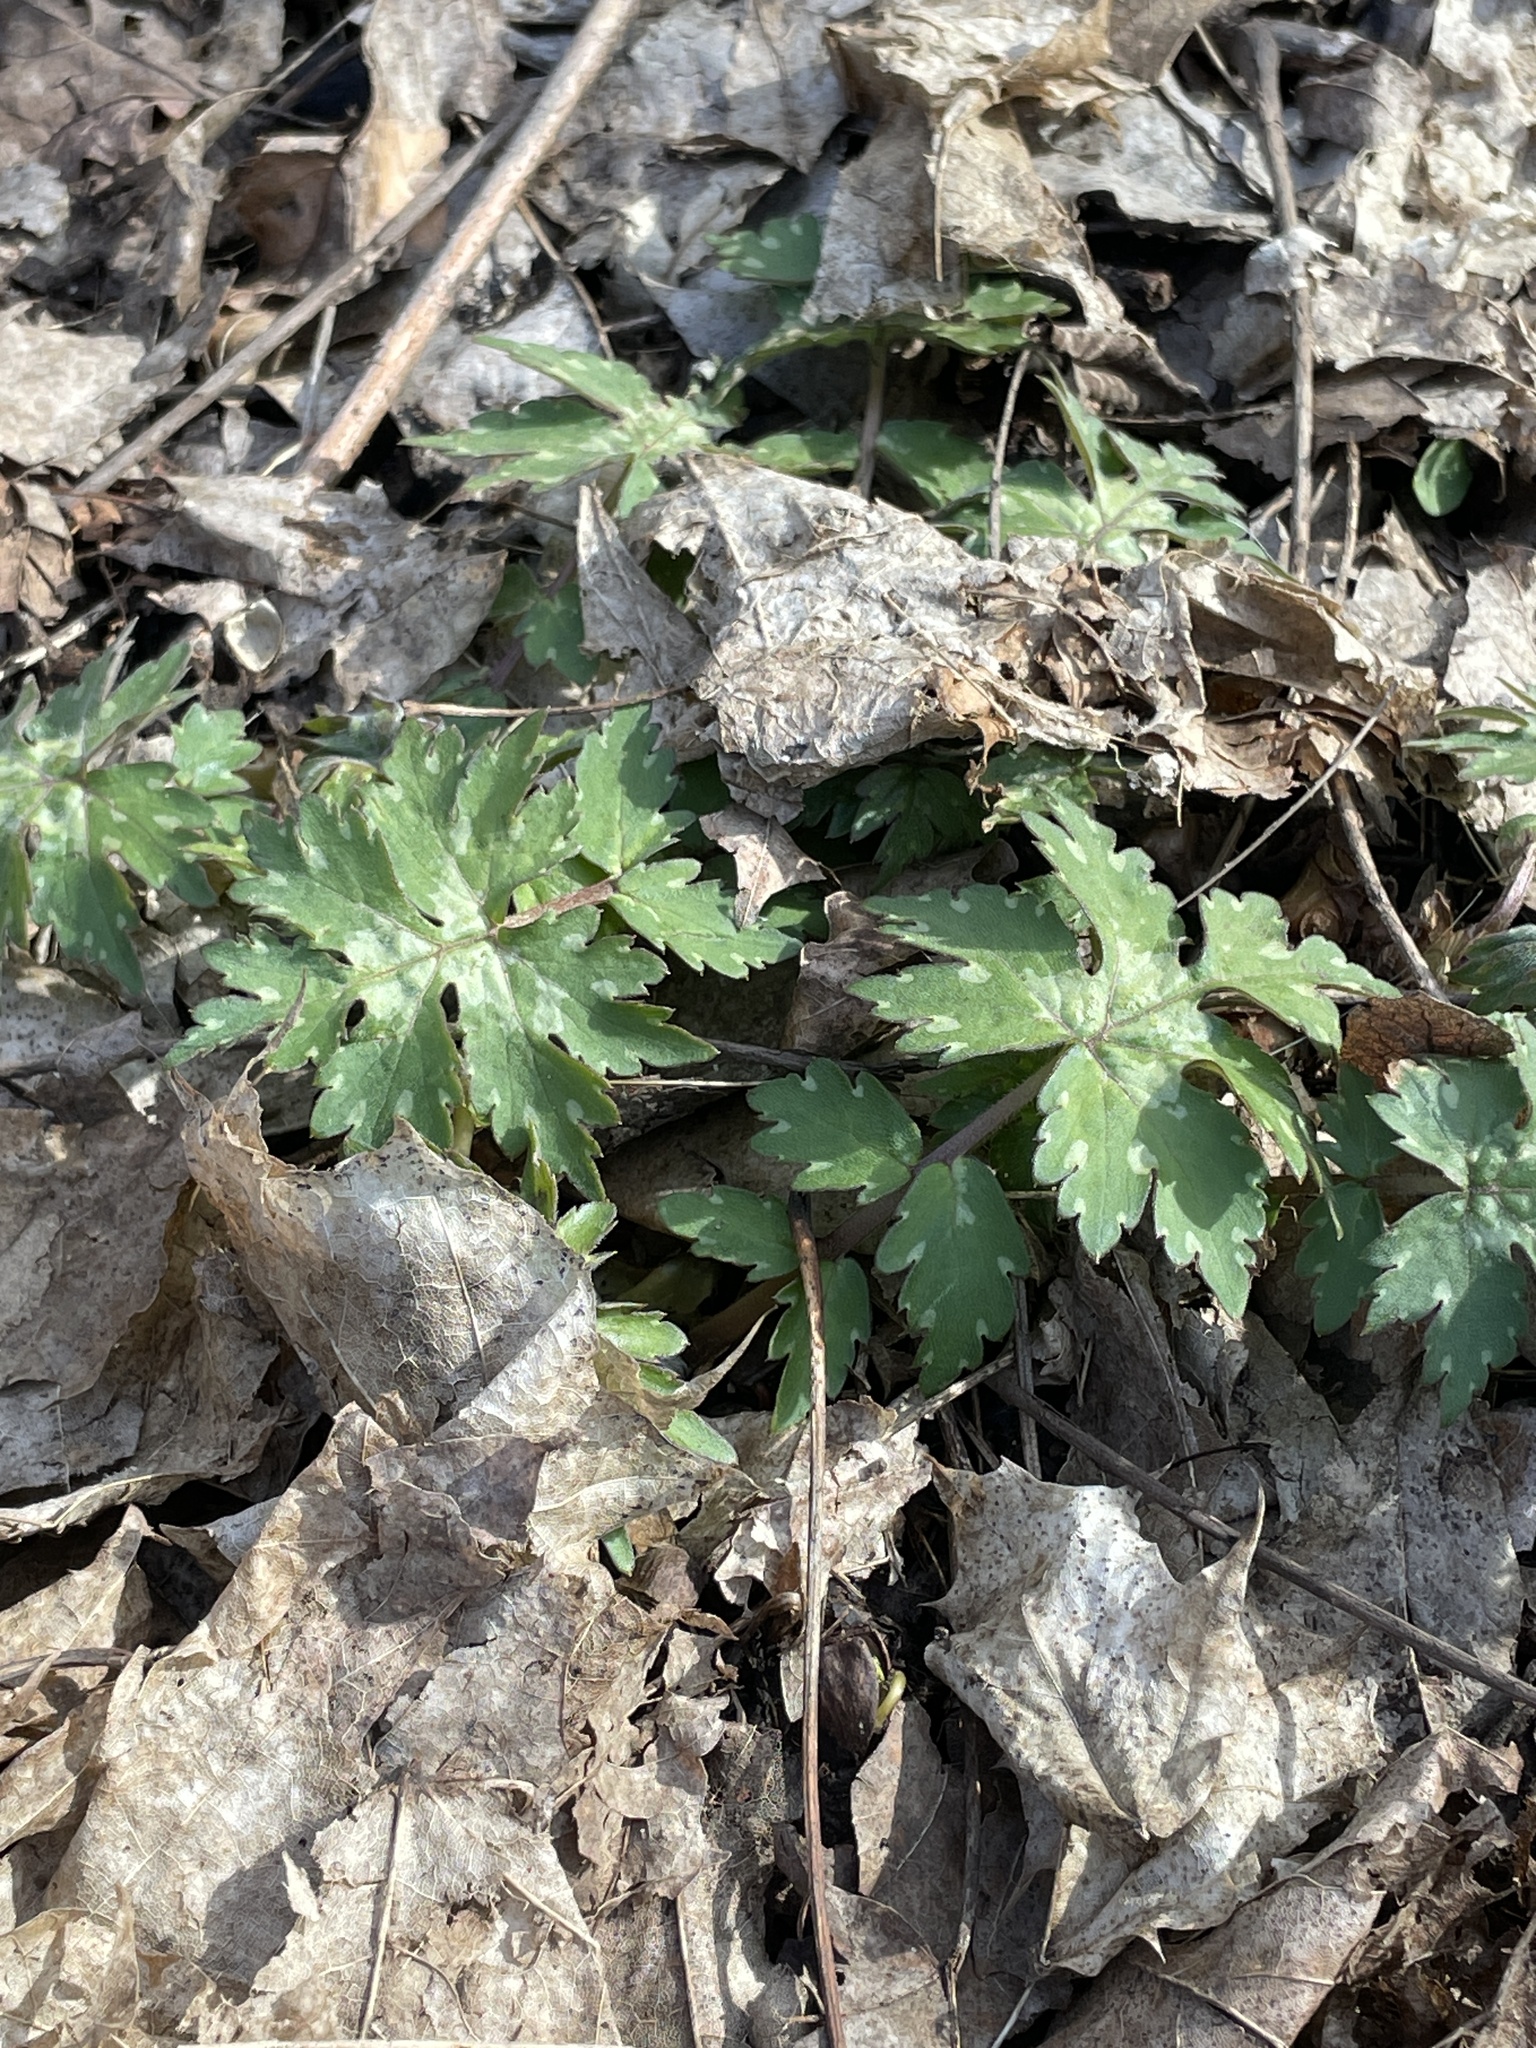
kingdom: Plantae
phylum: Tracheophyta
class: Magnoliopsida
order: Boraginales
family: Hydrophyllaceae
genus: Hydrophyllum
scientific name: Hydrophyllum canadense
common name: Canada waterleaf
